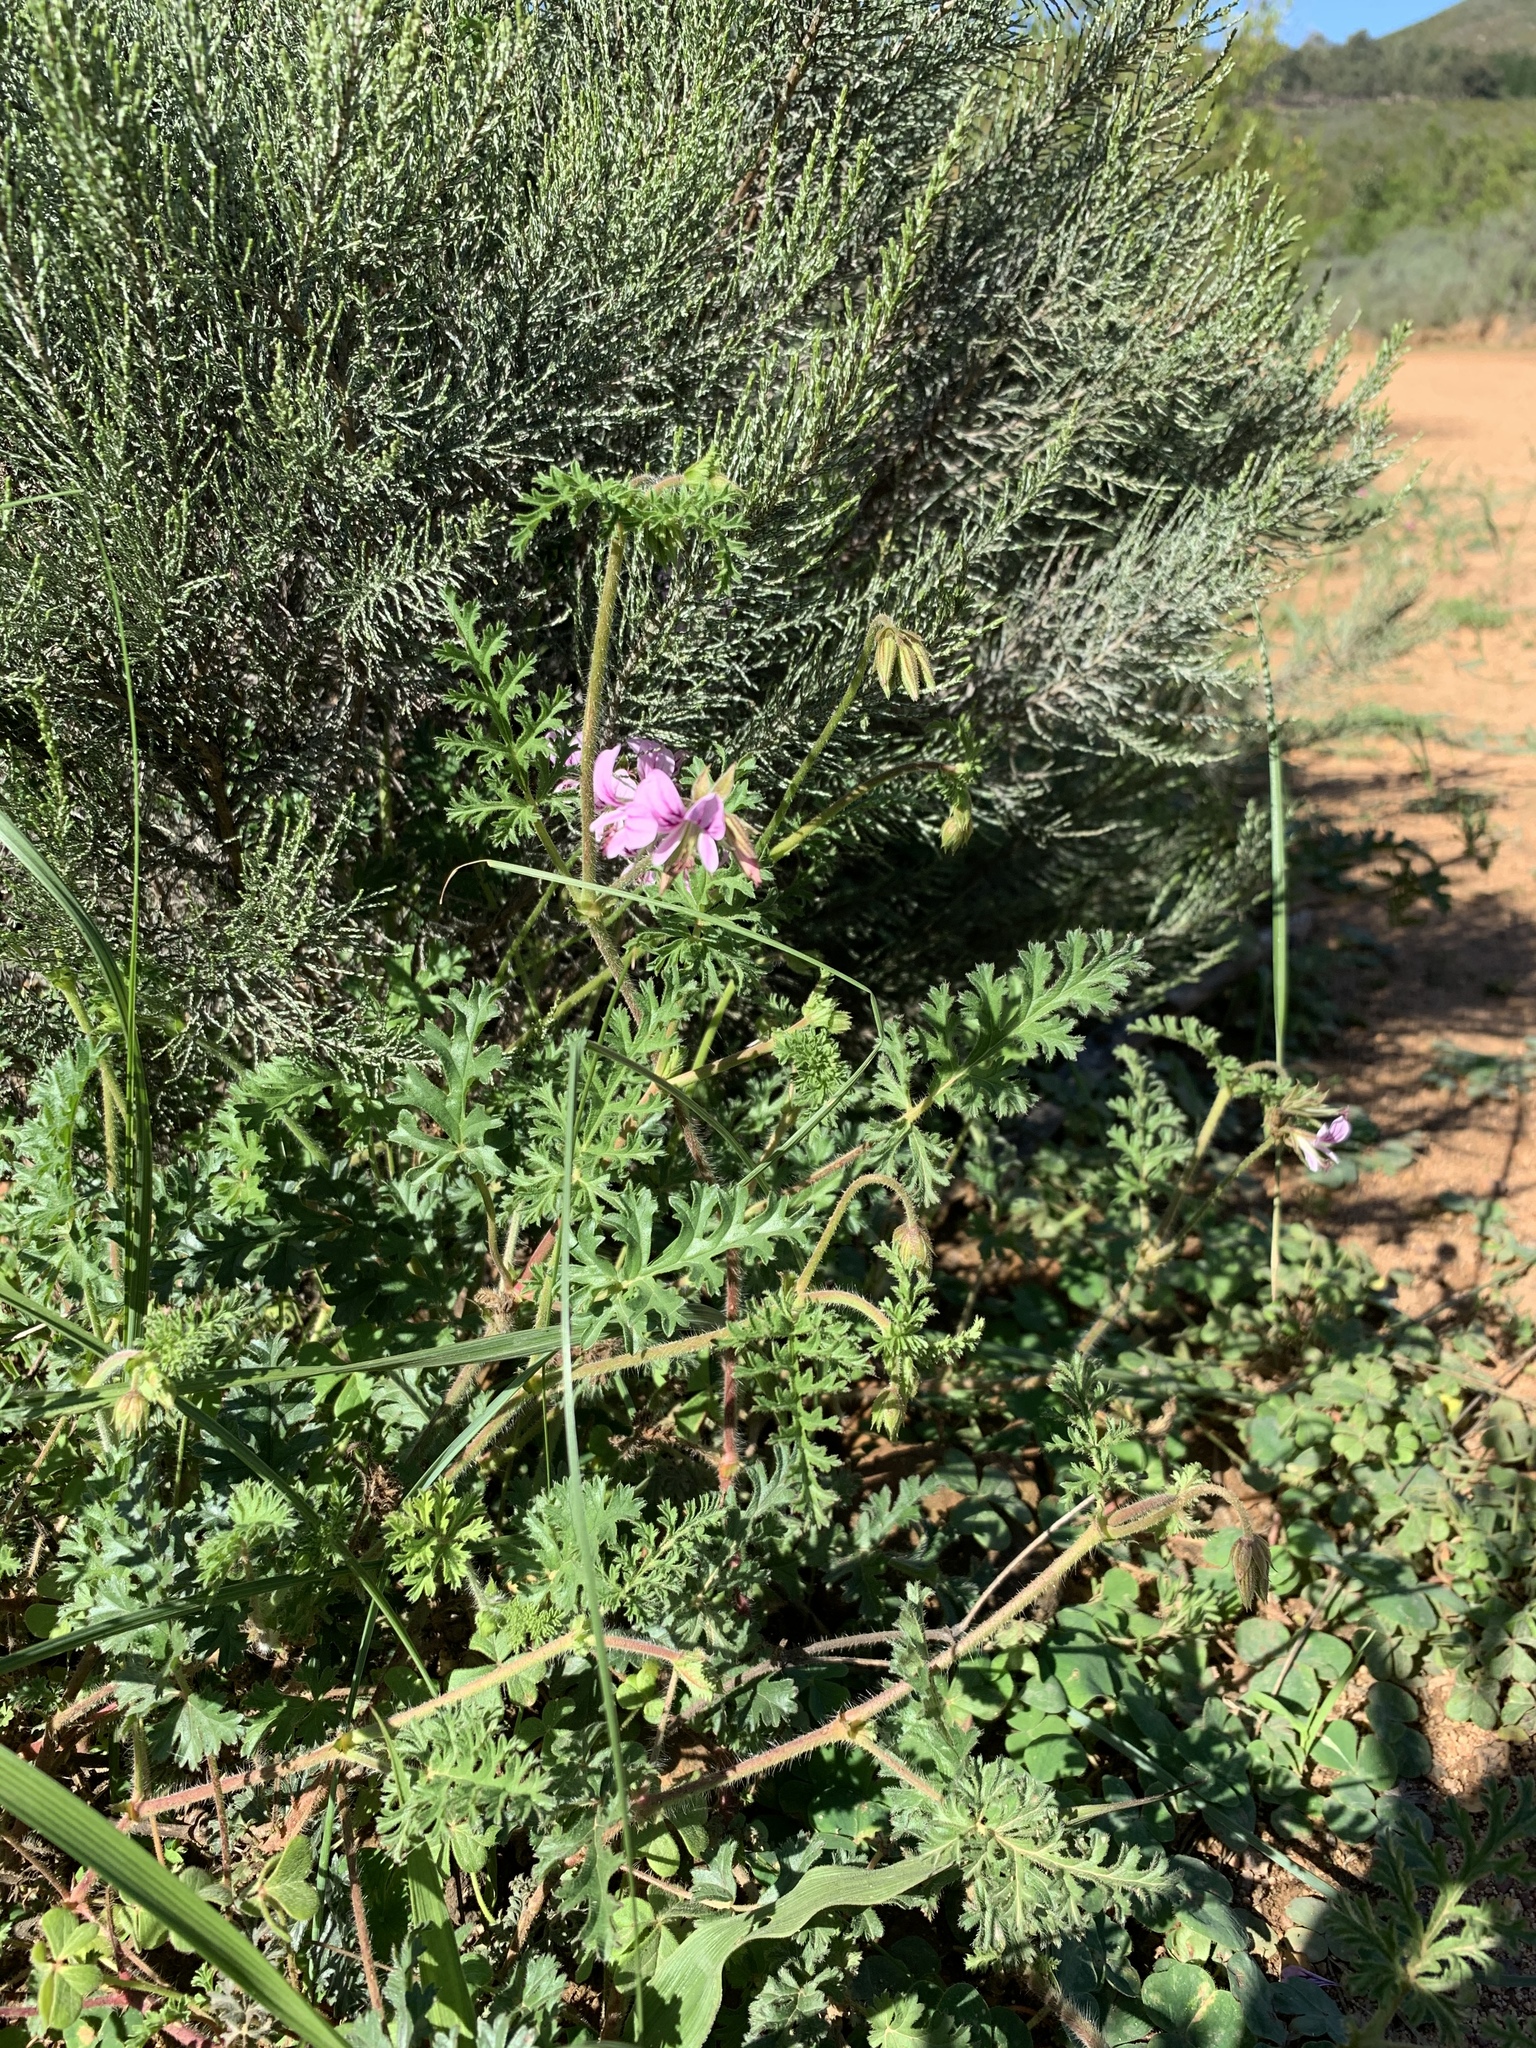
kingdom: Plantae
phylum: Tracheophyta
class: Magnoliopsida
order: Geraniales
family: Geraniaceae
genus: Pelargonium
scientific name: Pelargonium myrrhifolium
